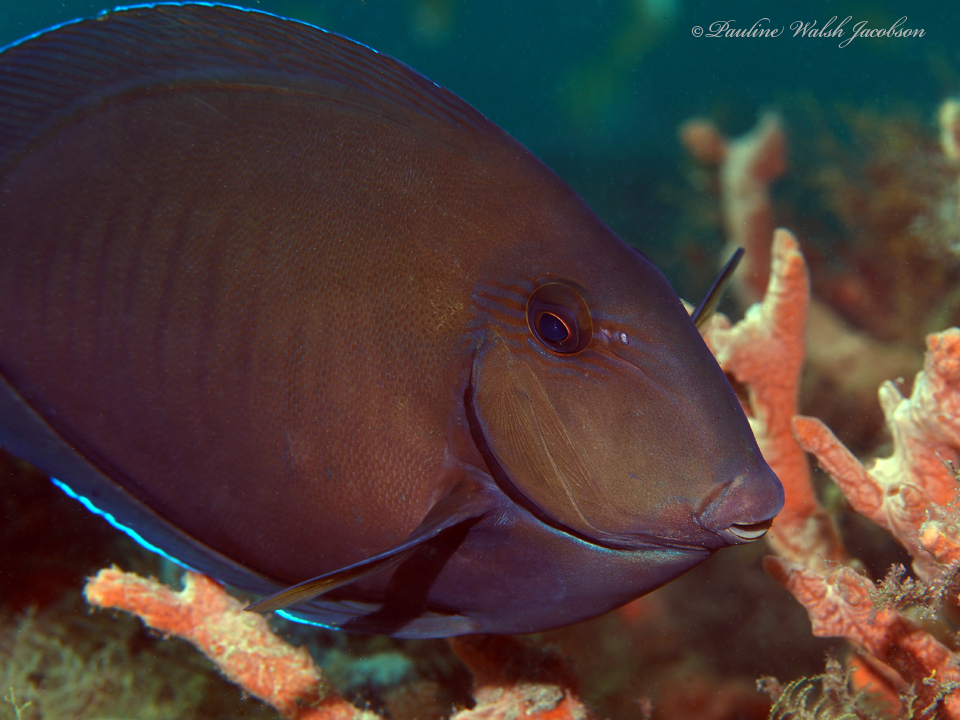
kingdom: Animalia
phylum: Chordata
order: Perciformes
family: Acanthuridae
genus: Acanthurus
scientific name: Acanthurus chirurgus
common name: Doctorfish
